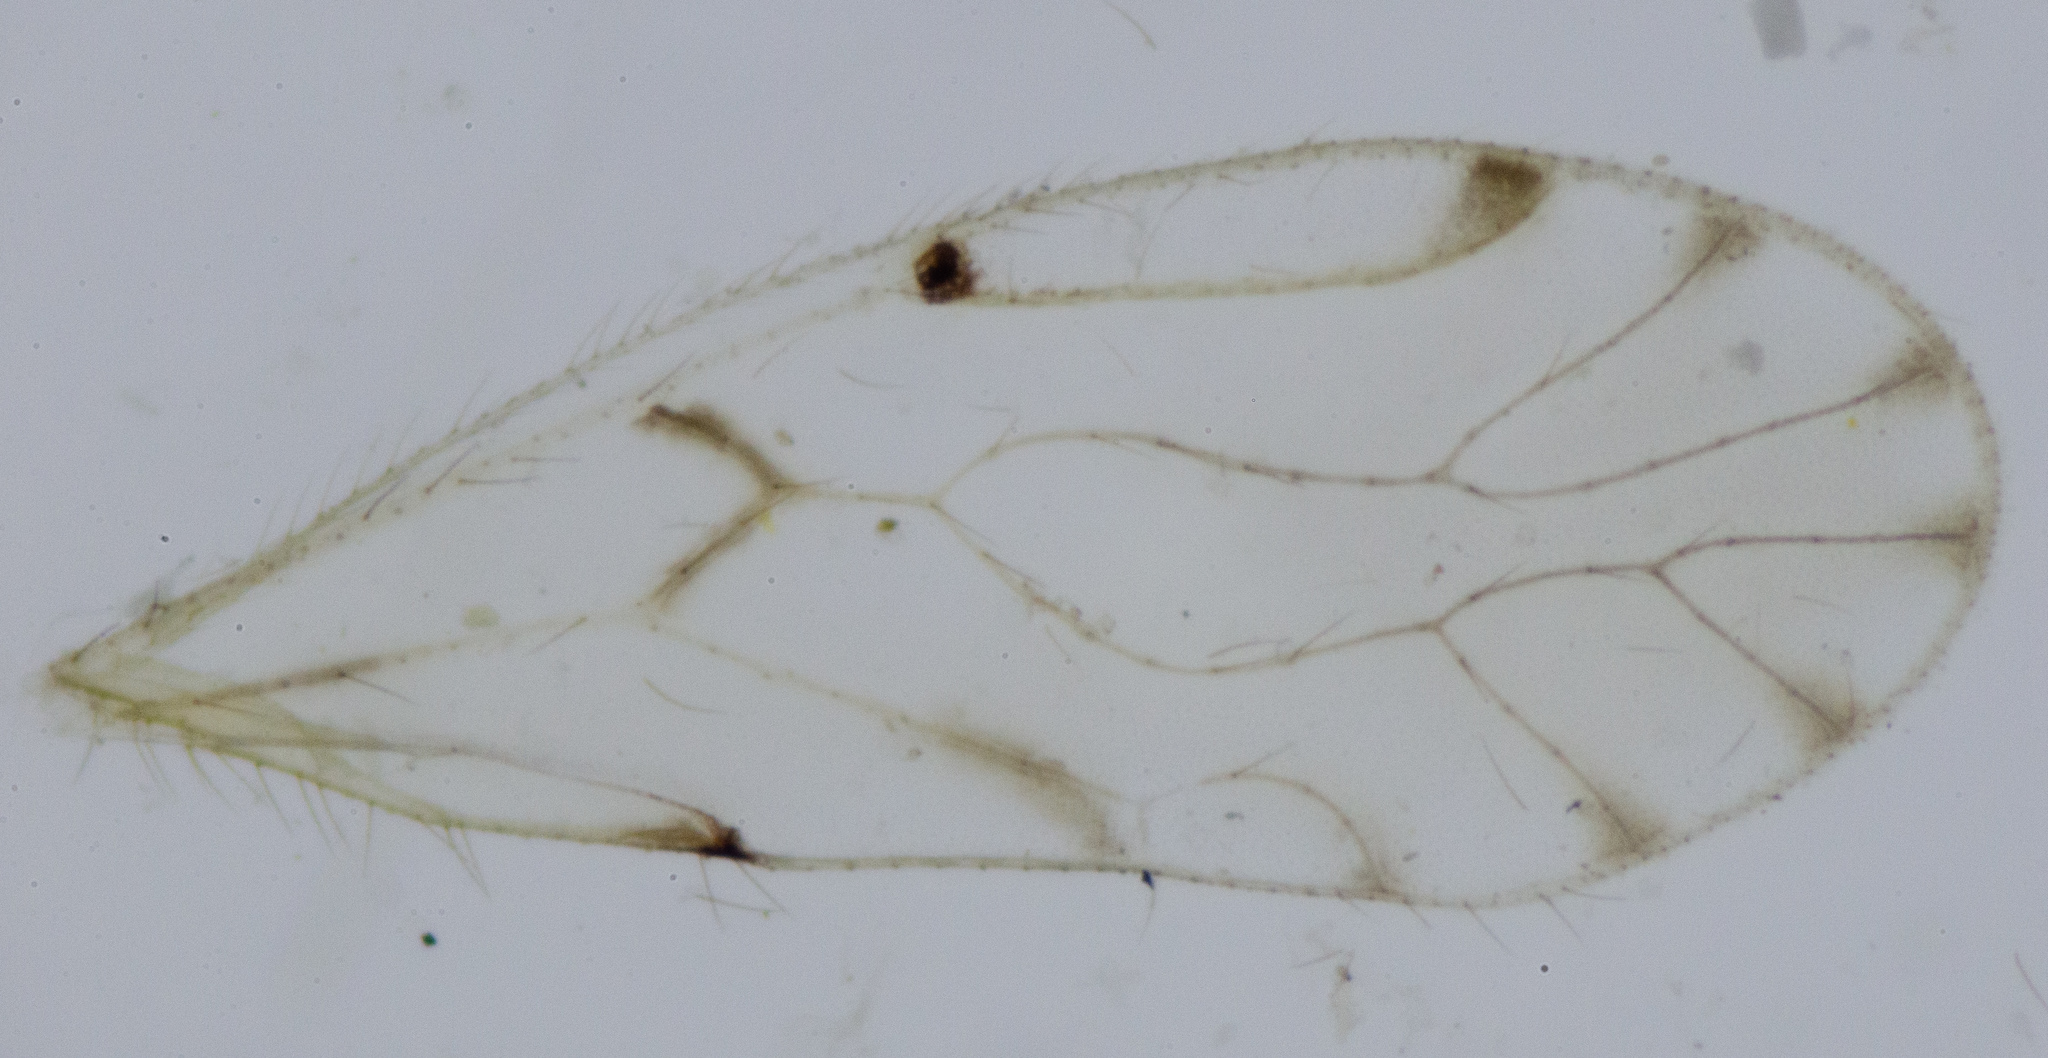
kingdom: Animalia
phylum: Arthropoda
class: Insecta
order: Psocodea
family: Trichopsocidae
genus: Trichopsocus
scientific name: Trichopsocus clarus
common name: Lash-faced psocid
